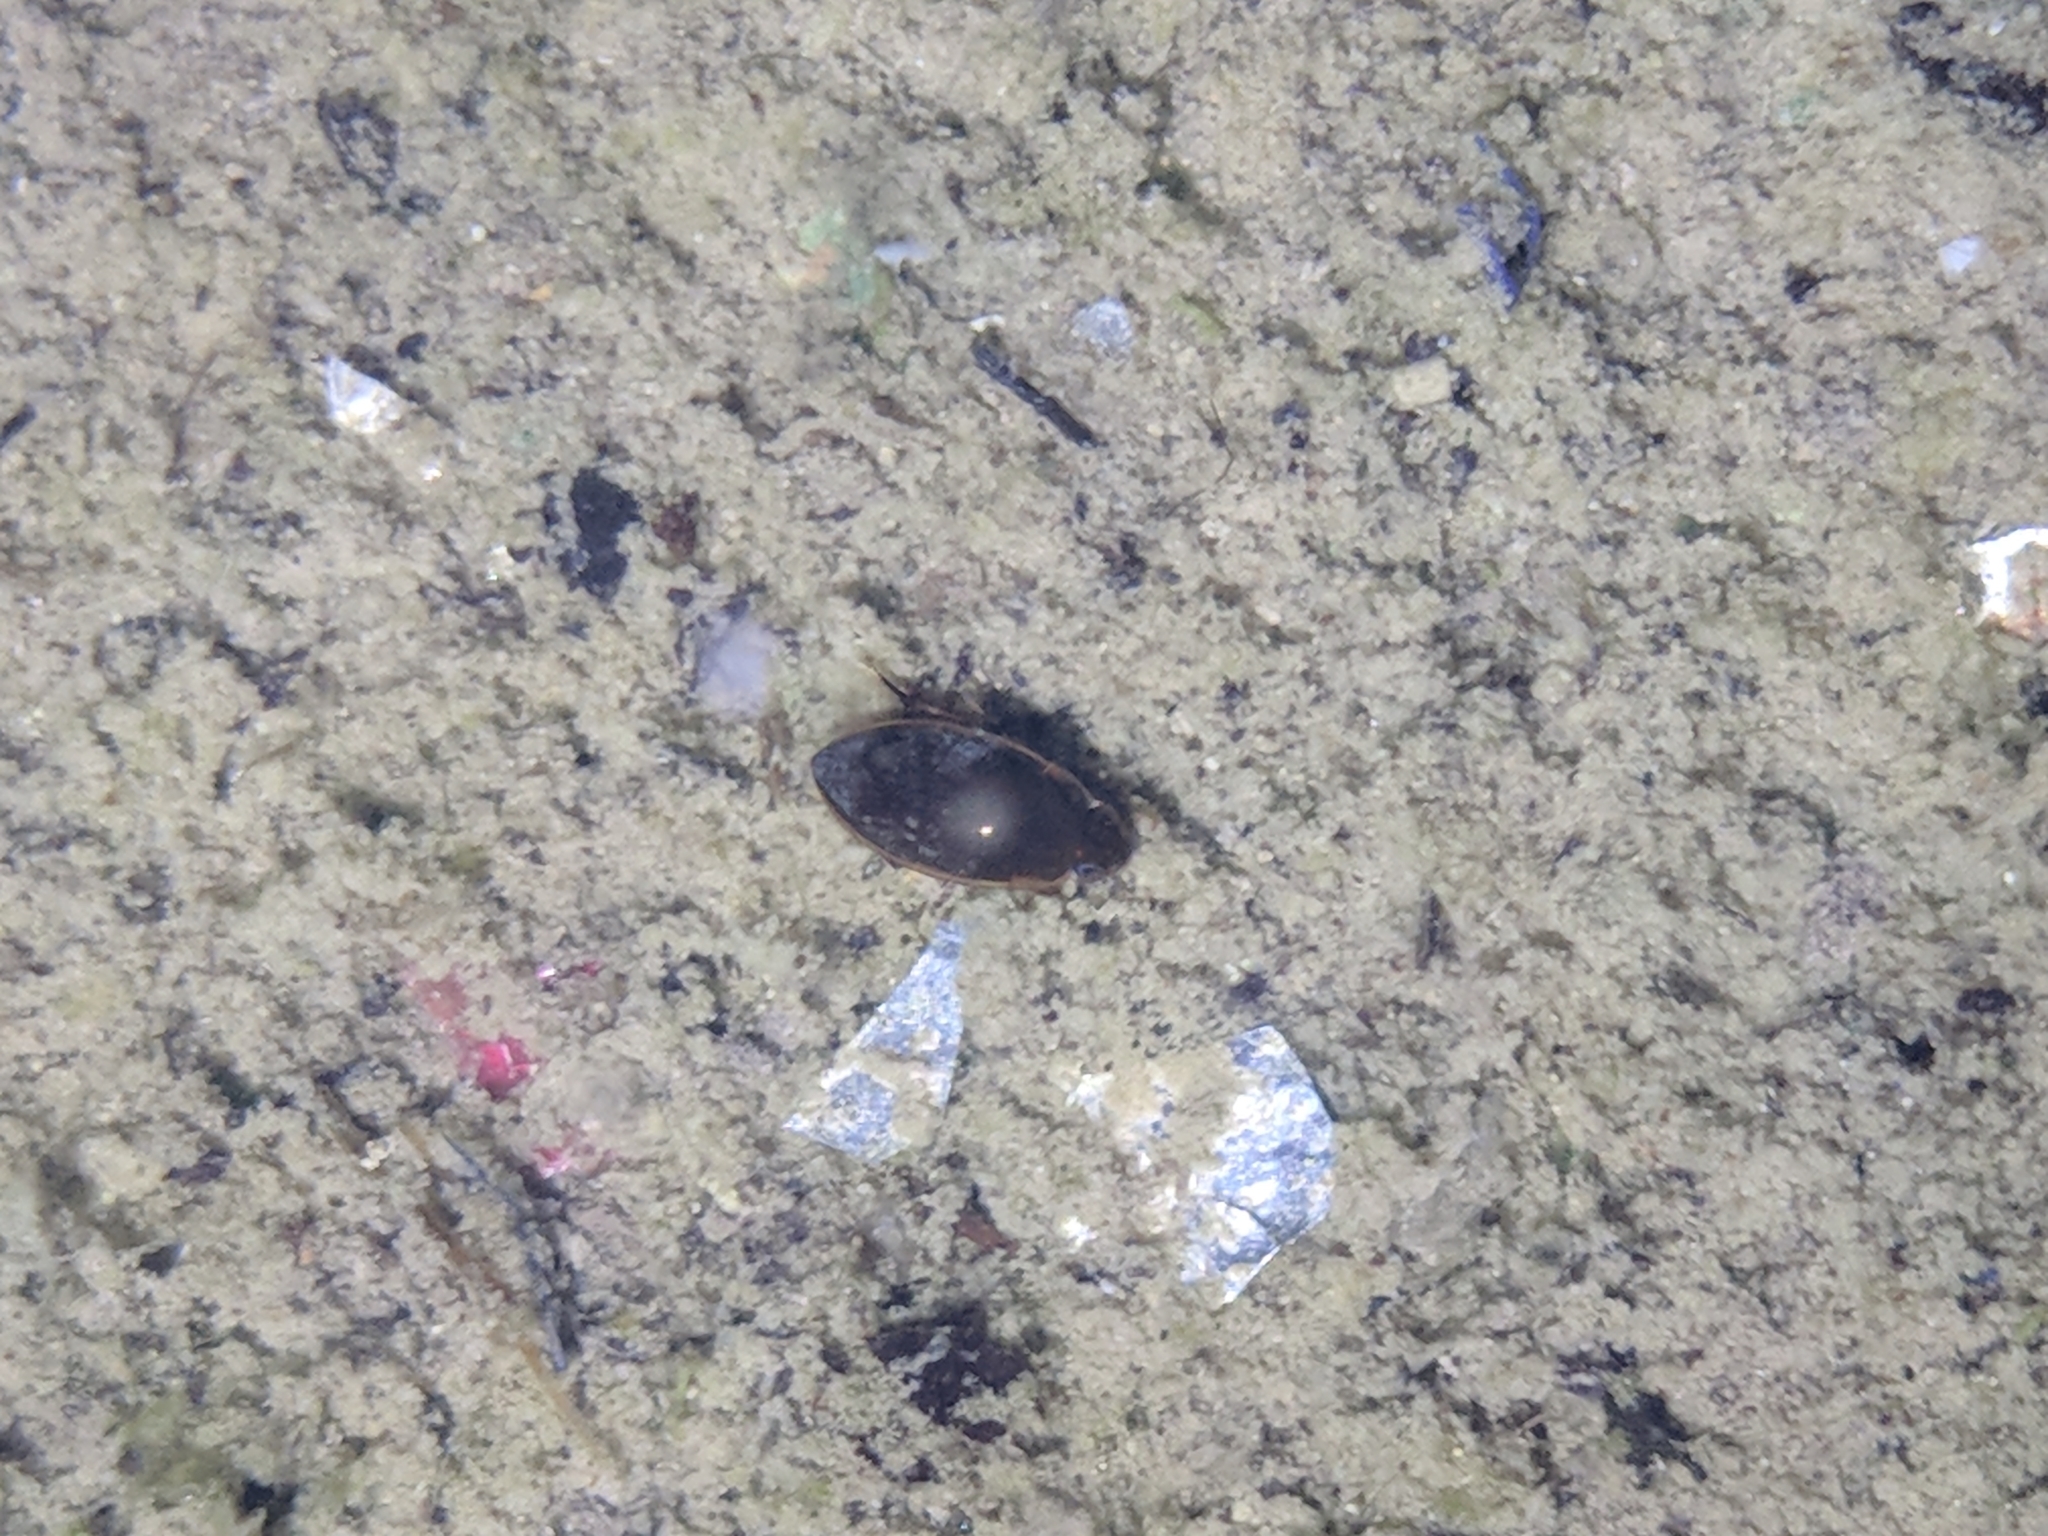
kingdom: Animalia
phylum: Arthropoda
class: Insecta
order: Coleoptera
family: Hydrophilidae
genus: Tropisternus
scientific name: Tropisternus lateralis
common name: Lateral-banded water scavenger beetle
